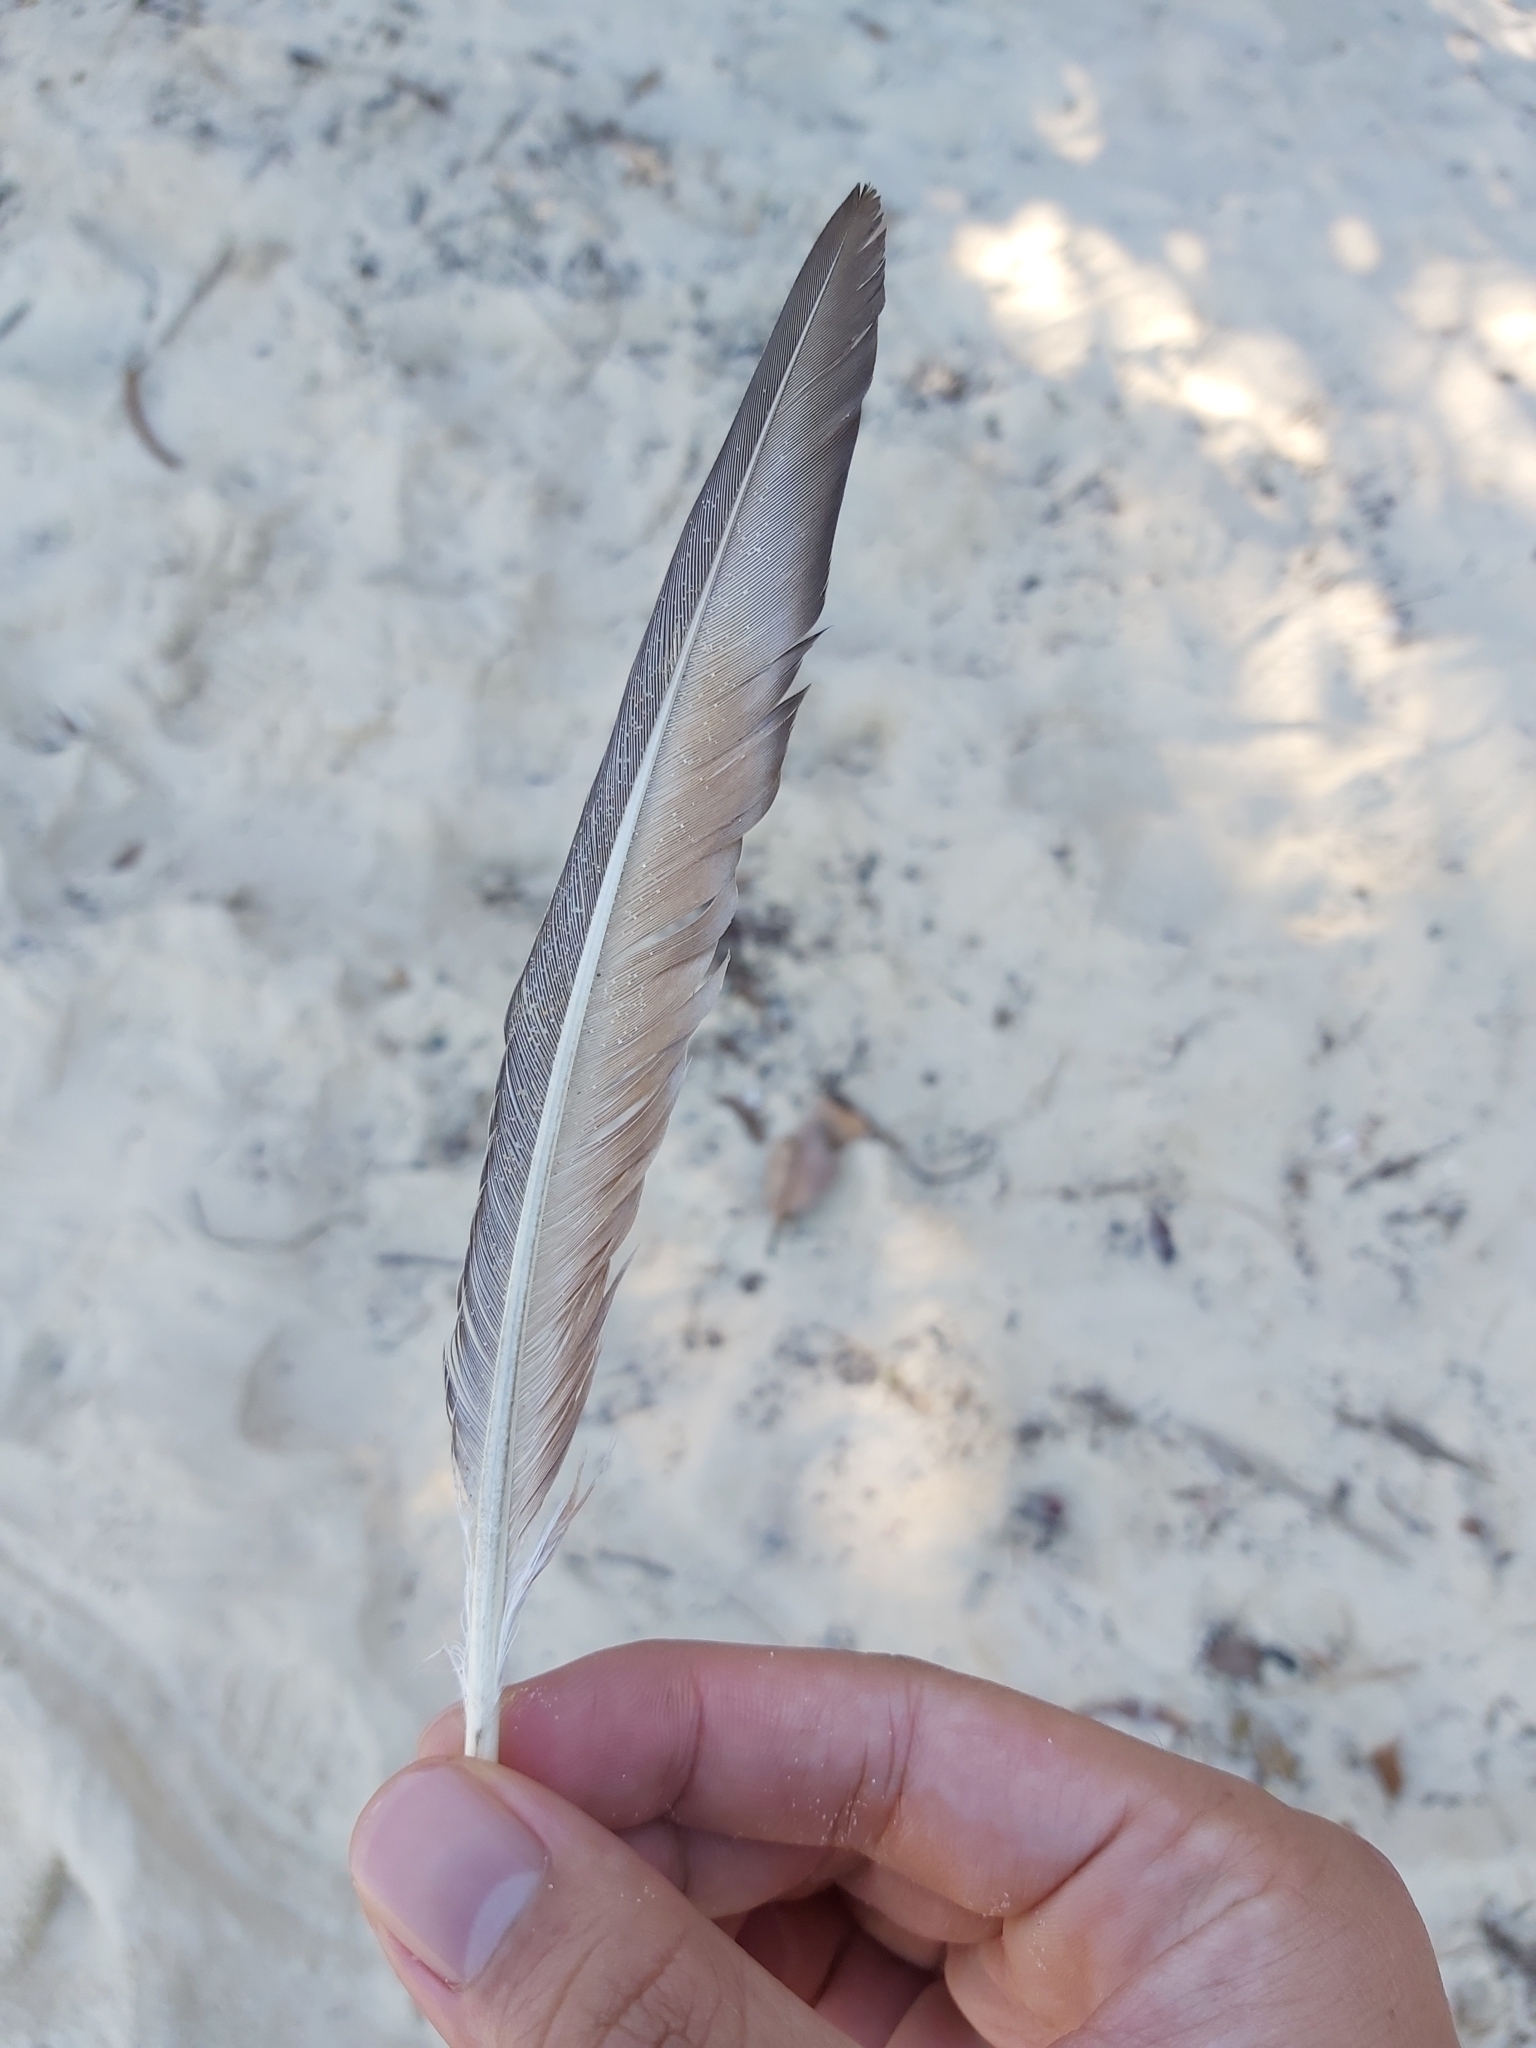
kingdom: Animalia
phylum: Chordata
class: Aves
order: Columbiformes
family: Columbidae
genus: Columba
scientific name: Columba livia
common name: Rock pigeon
